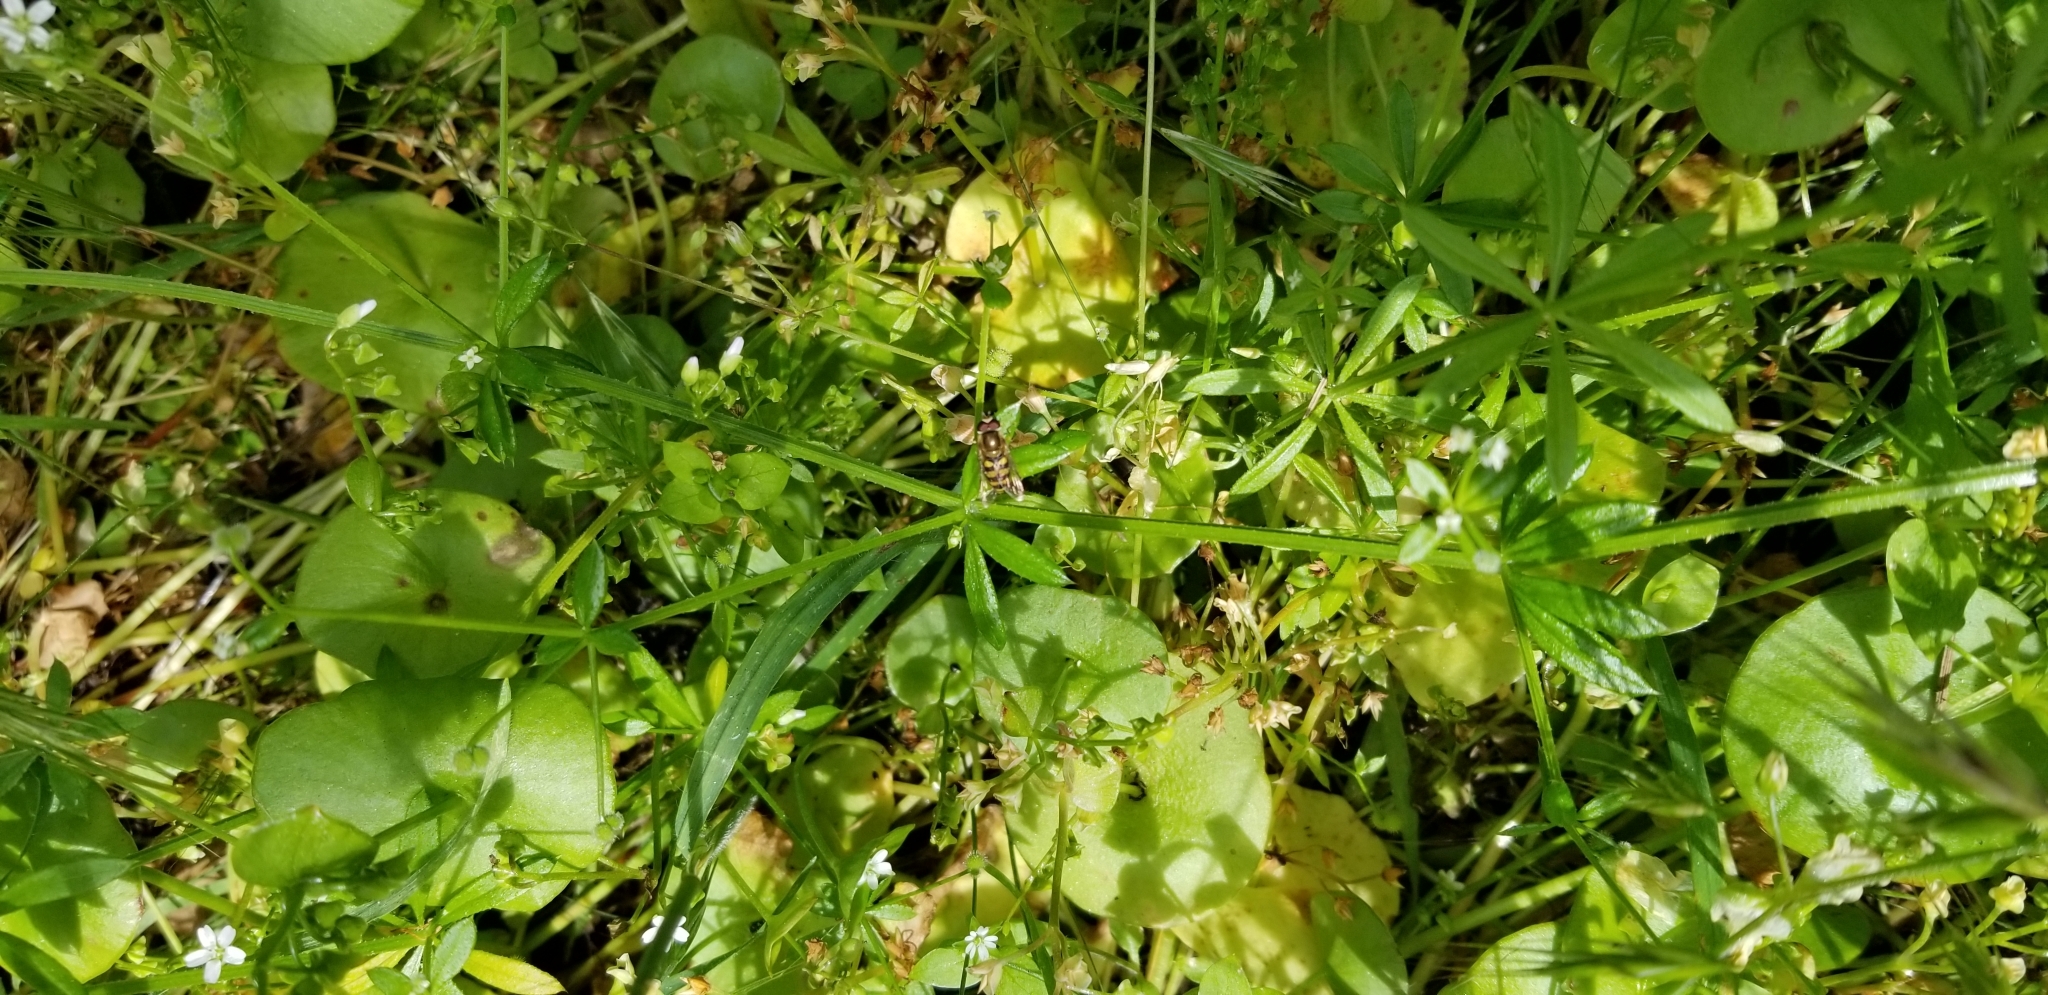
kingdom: Animalia
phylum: Arthropoda
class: Insecta
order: Diptera
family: Syrphidae
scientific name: Syrphidae
